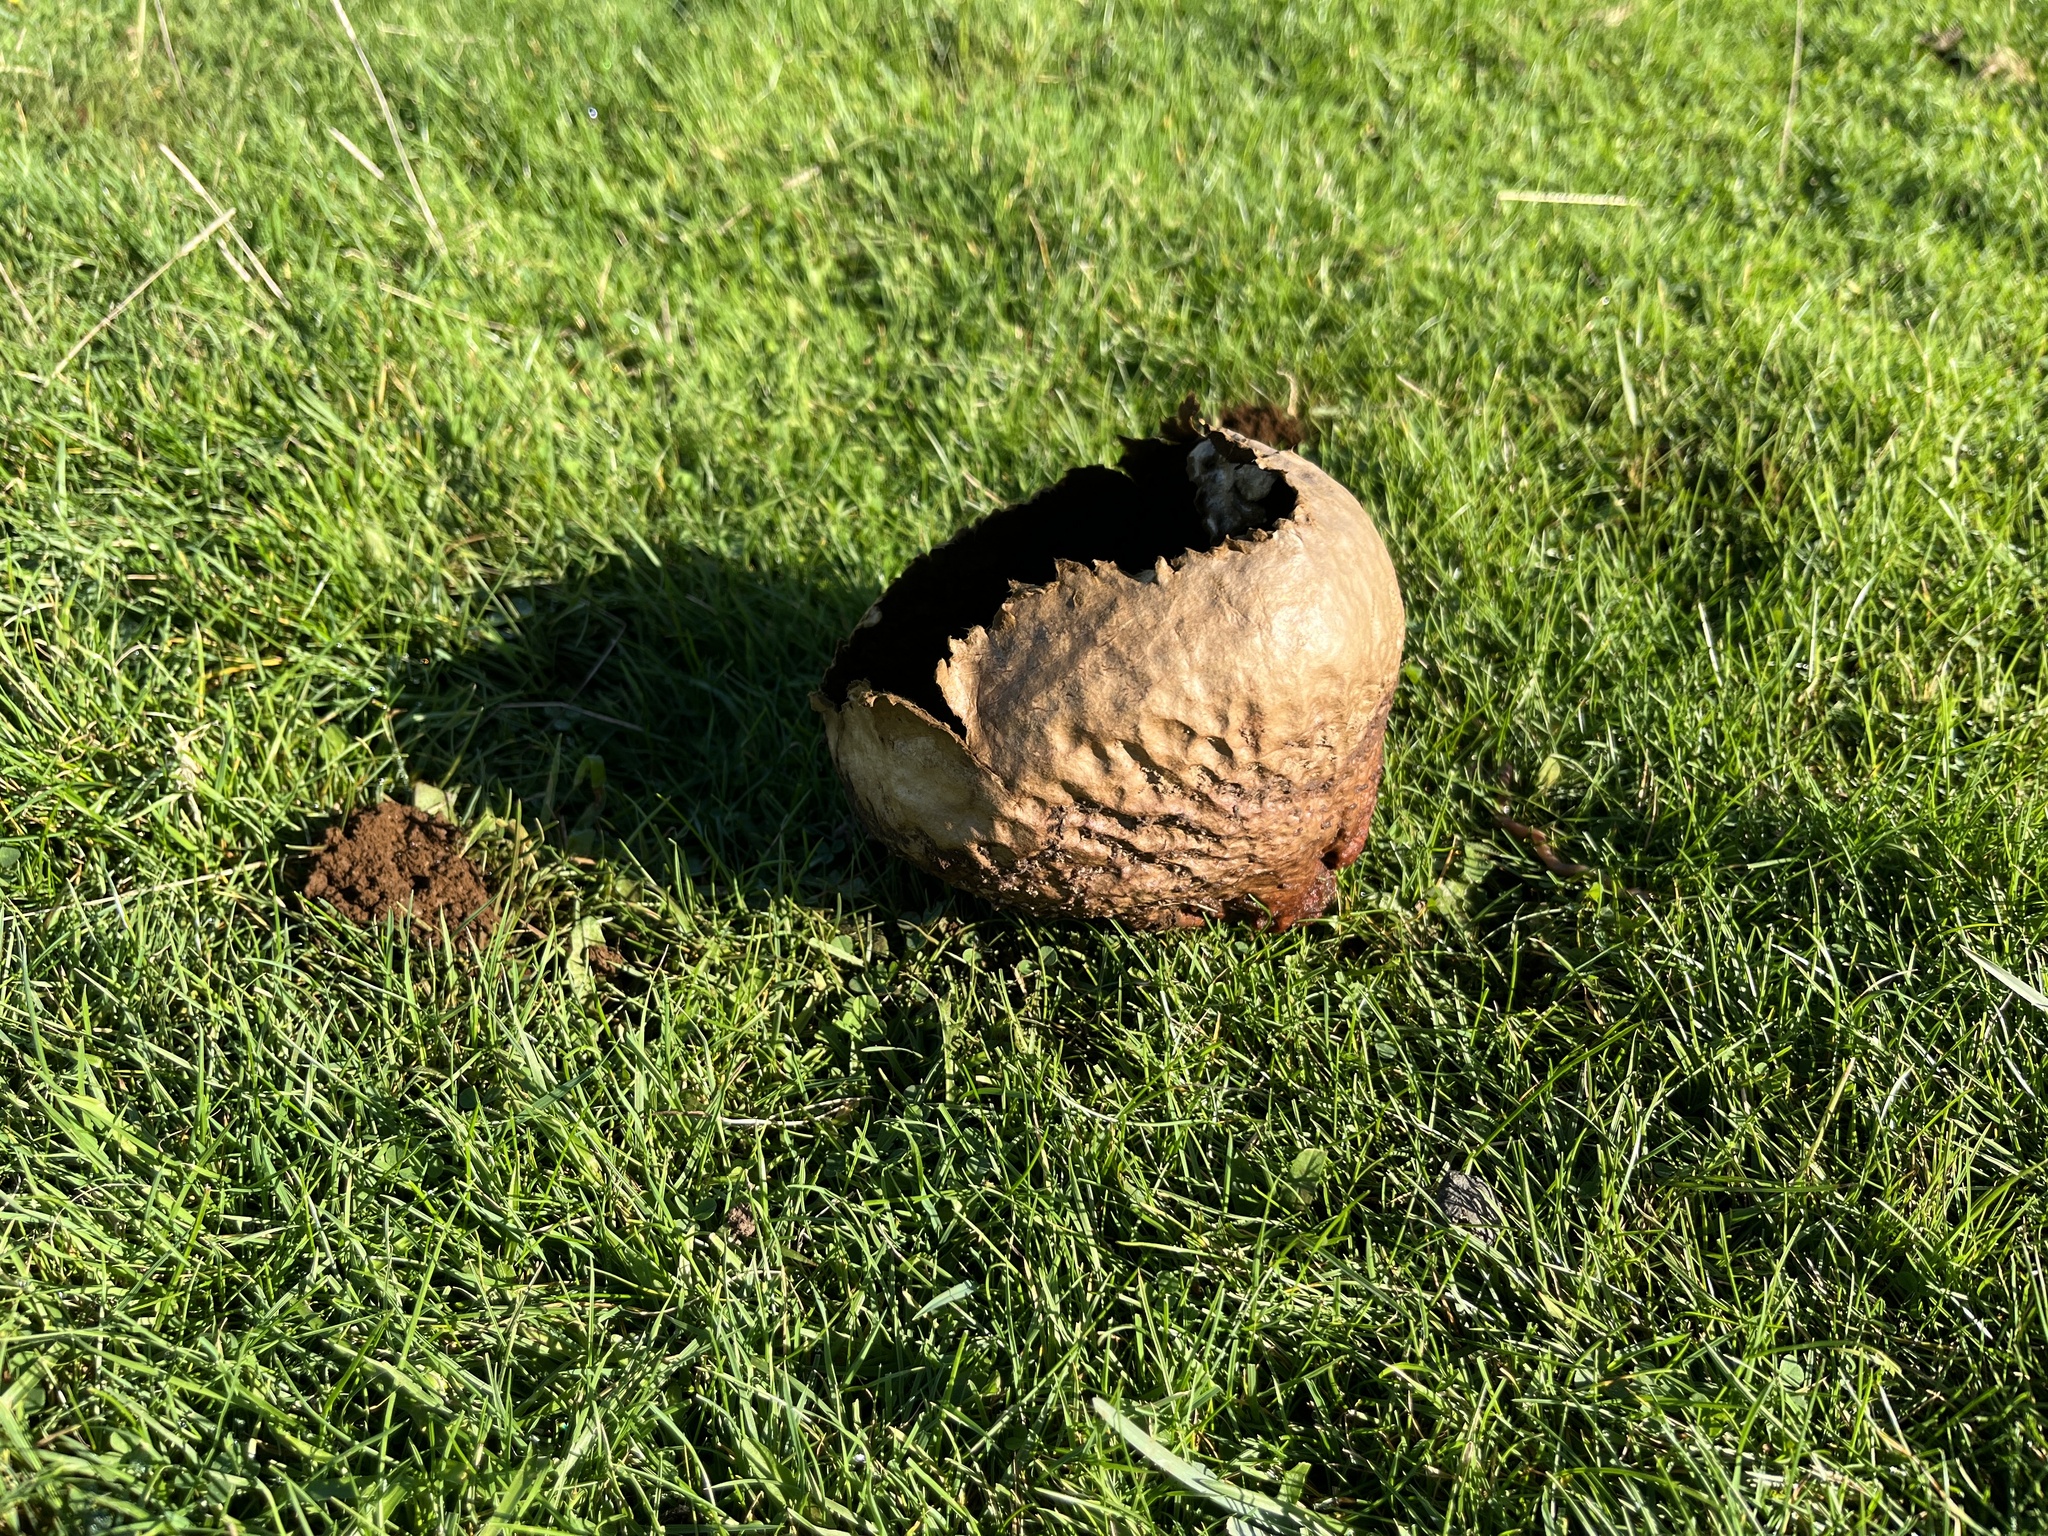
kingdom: Fungi
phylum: Basidiomycota
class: Agaricomycetes
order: Agaricales
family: Lycoperdaceae
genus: Bovistella
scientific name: Bovistella utriformis
